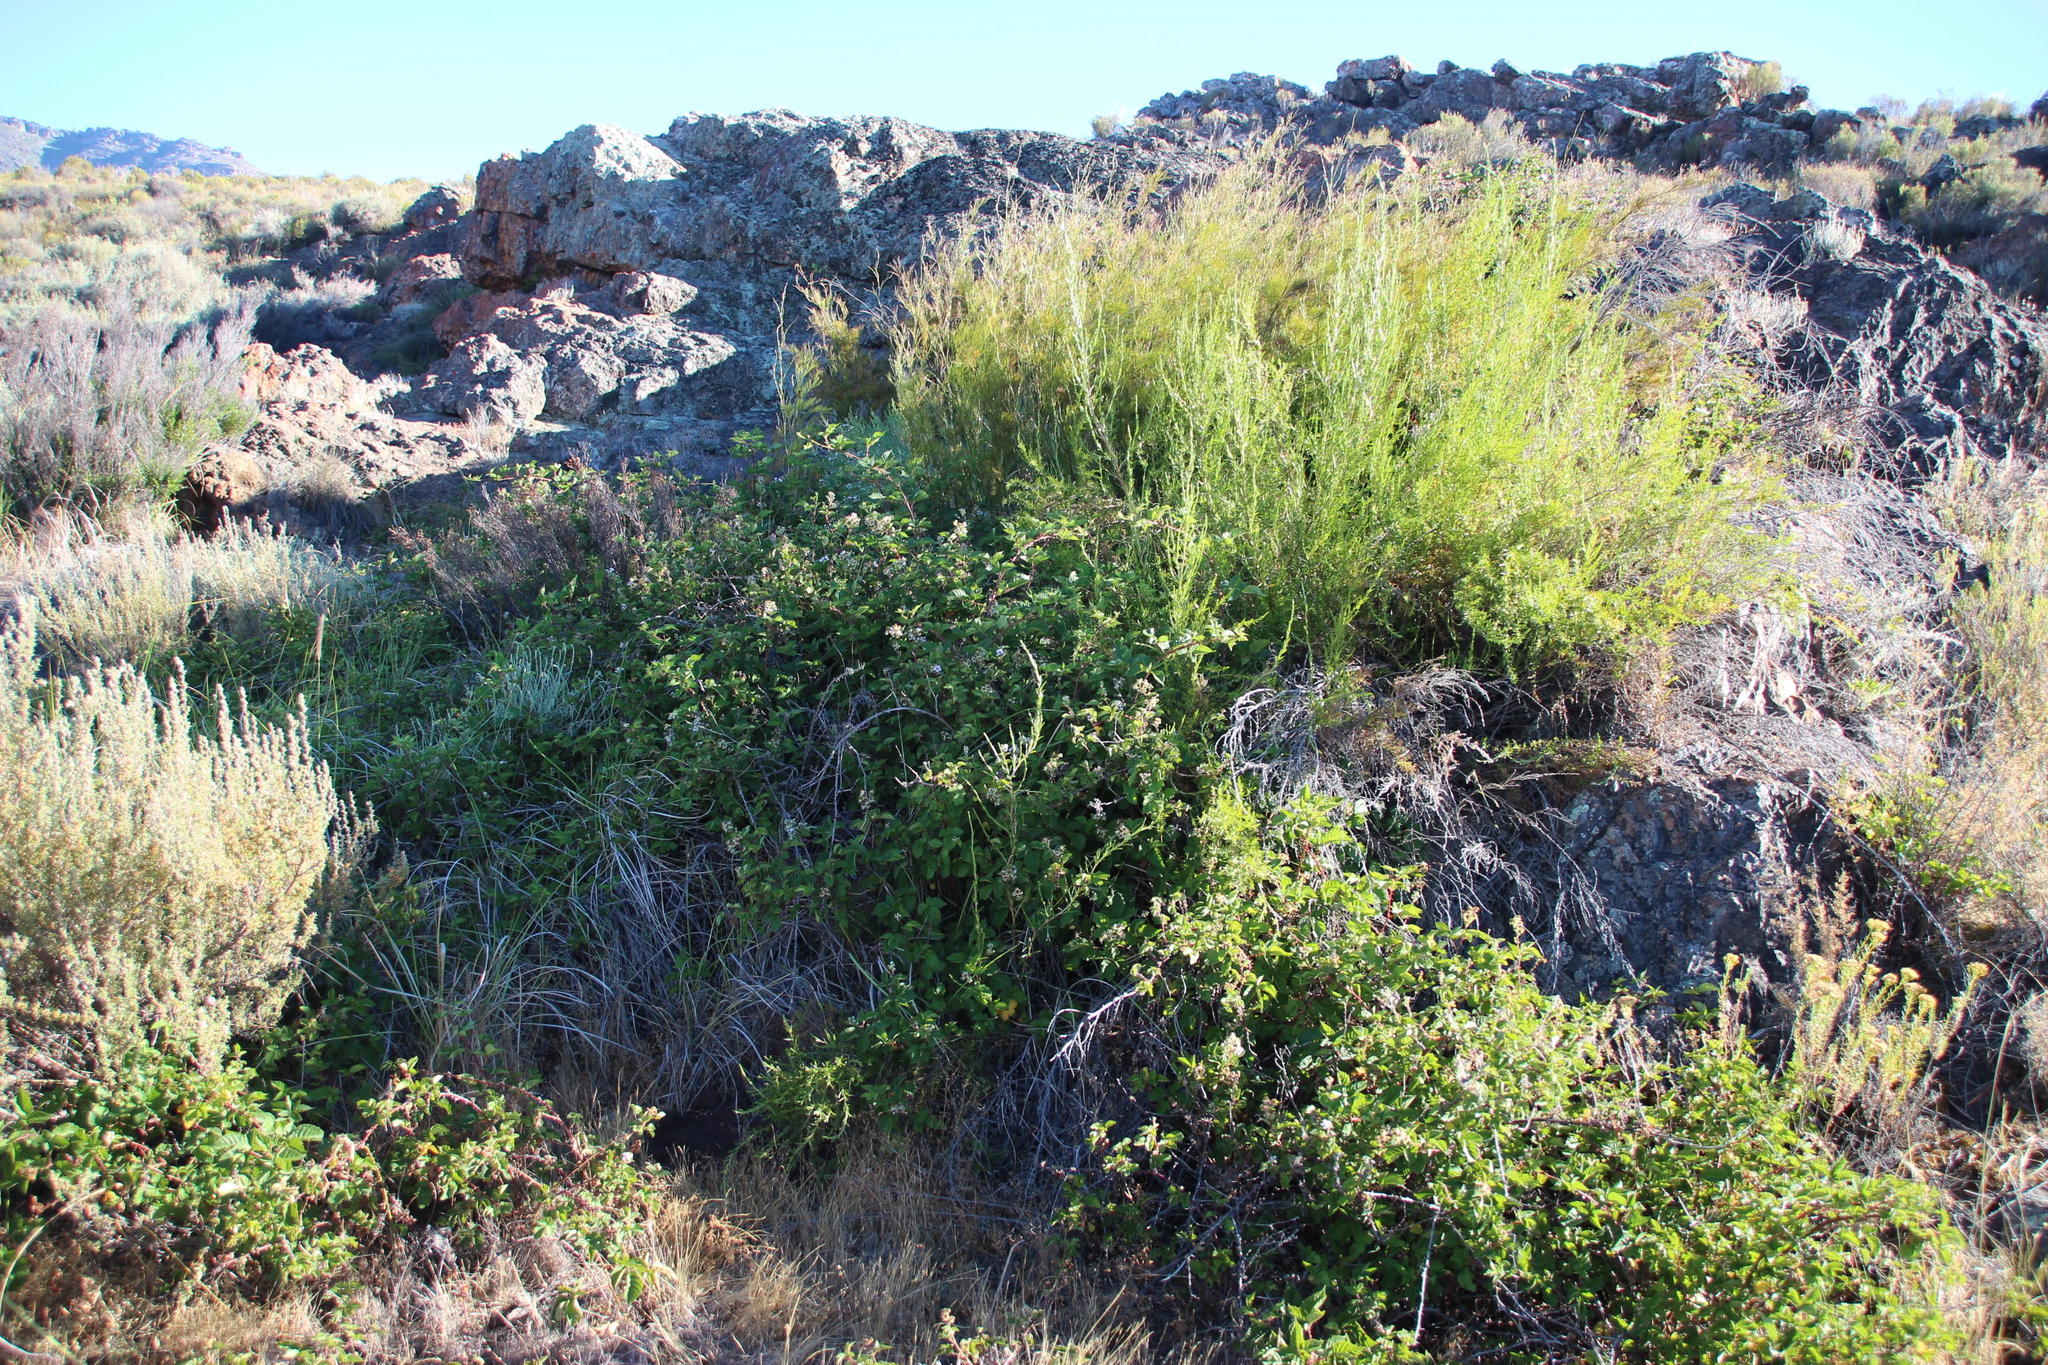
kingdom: Plantae
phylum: Tracheophyta
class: Magnoliopsida
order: Rosales
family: Rosaceae
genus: Rubus
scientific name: Rubus
